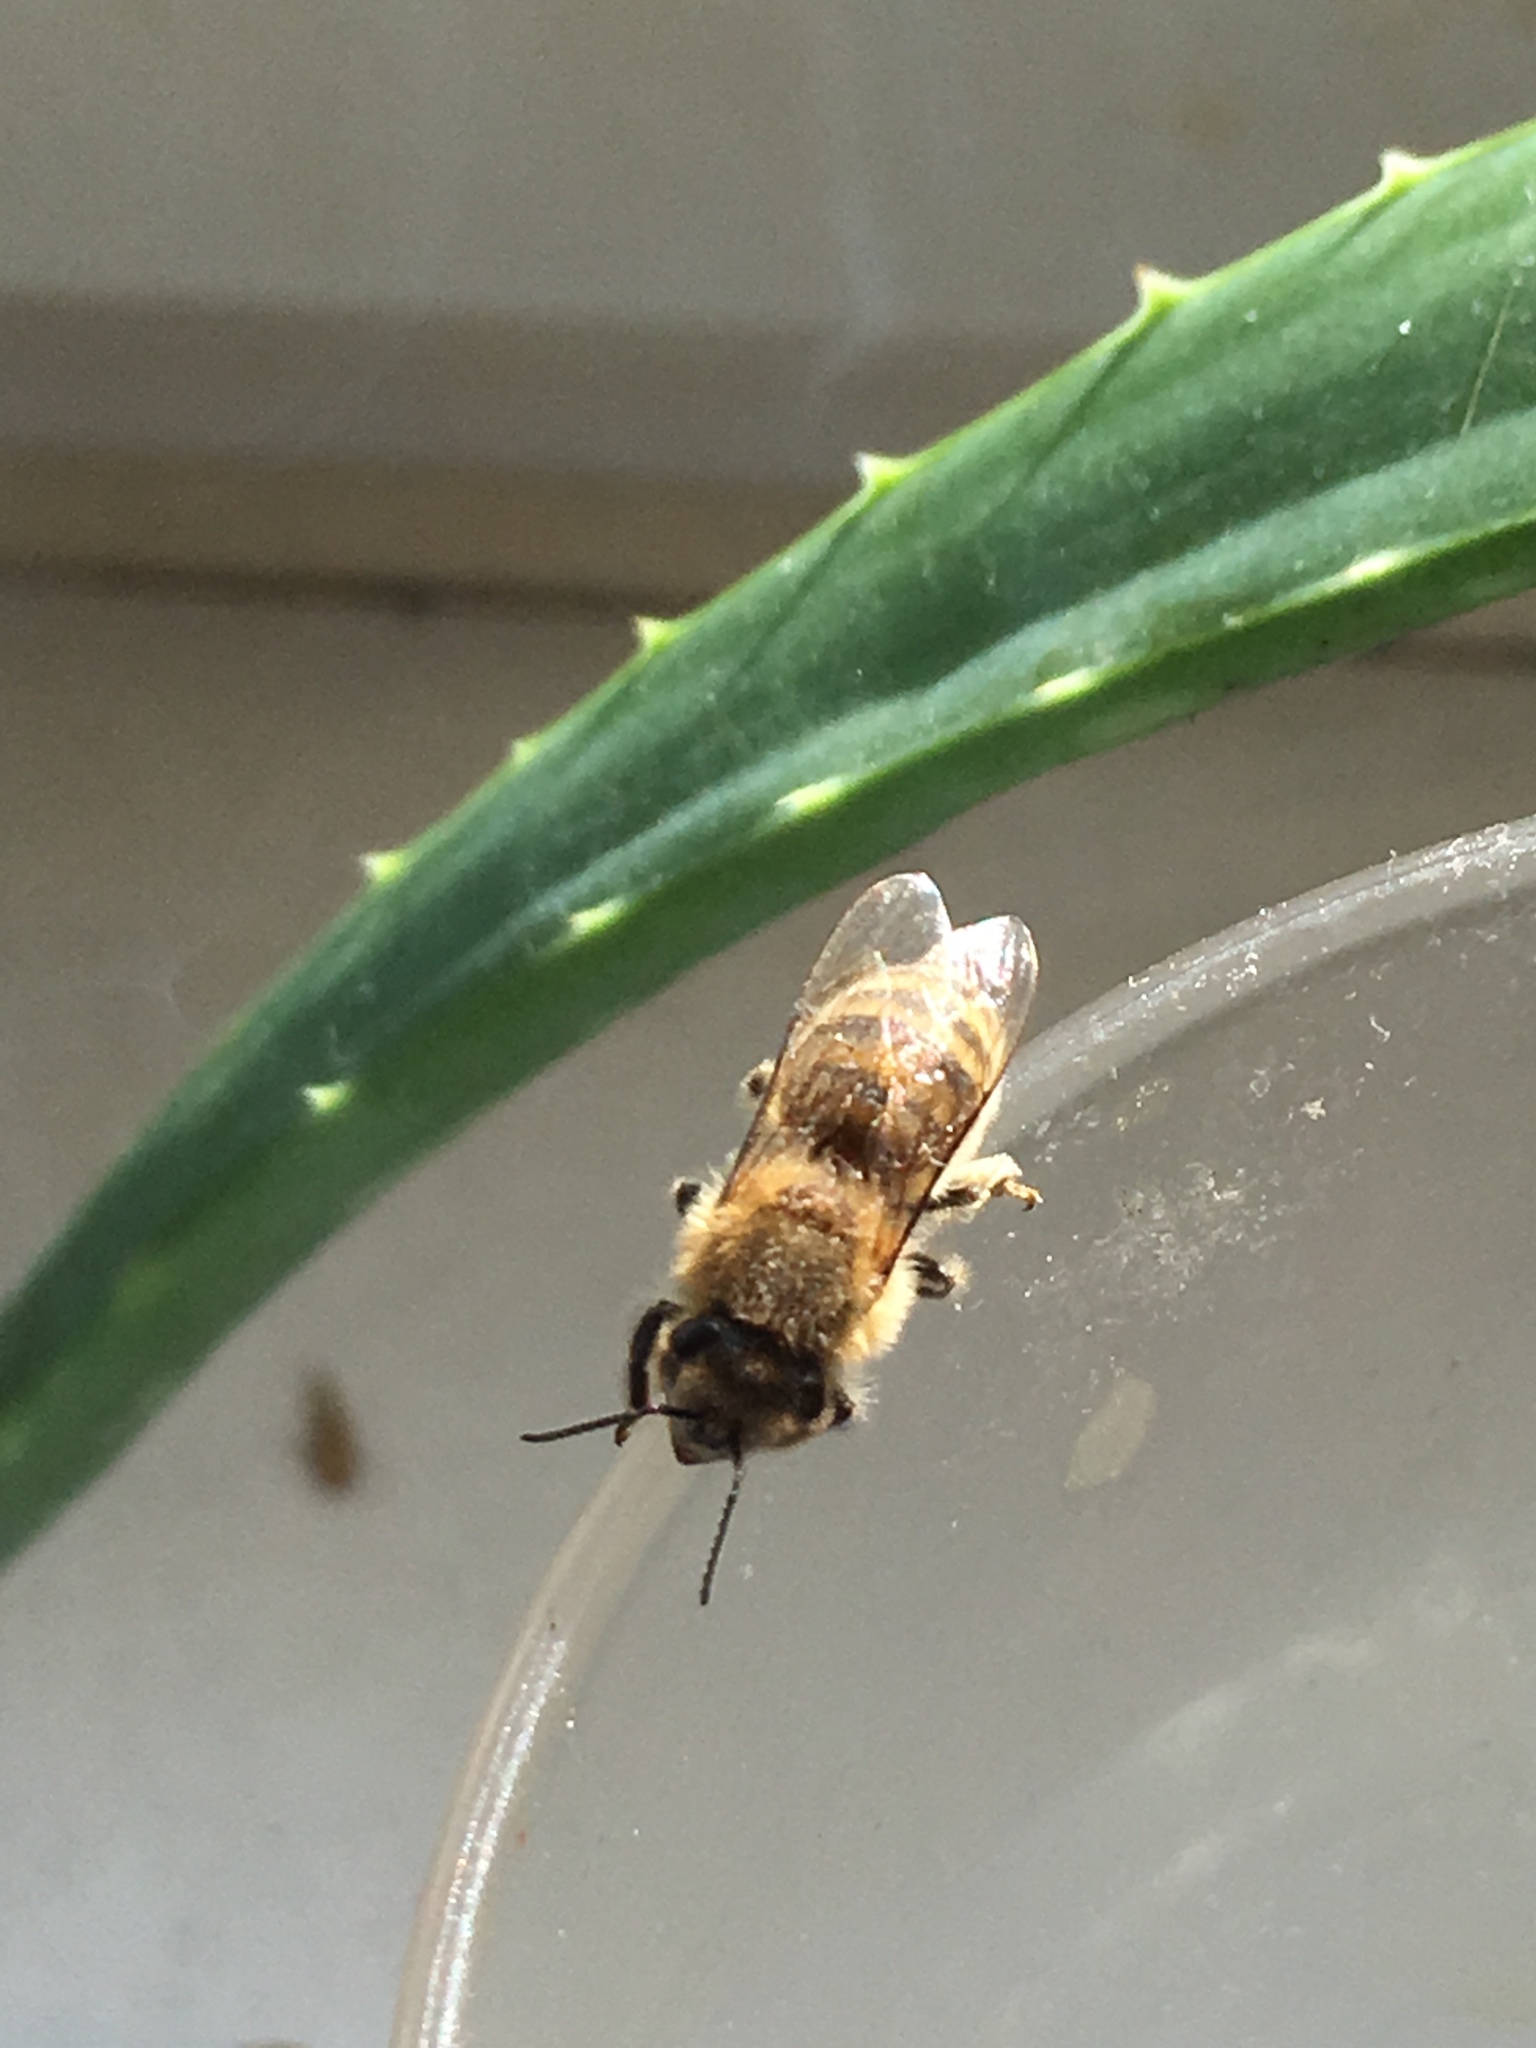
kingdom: Animalia
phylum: Arthropoda
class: Insecta
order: Hymenoptera
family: Apidae
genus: Apis
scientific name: Apis mellifera
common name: Honey bee
